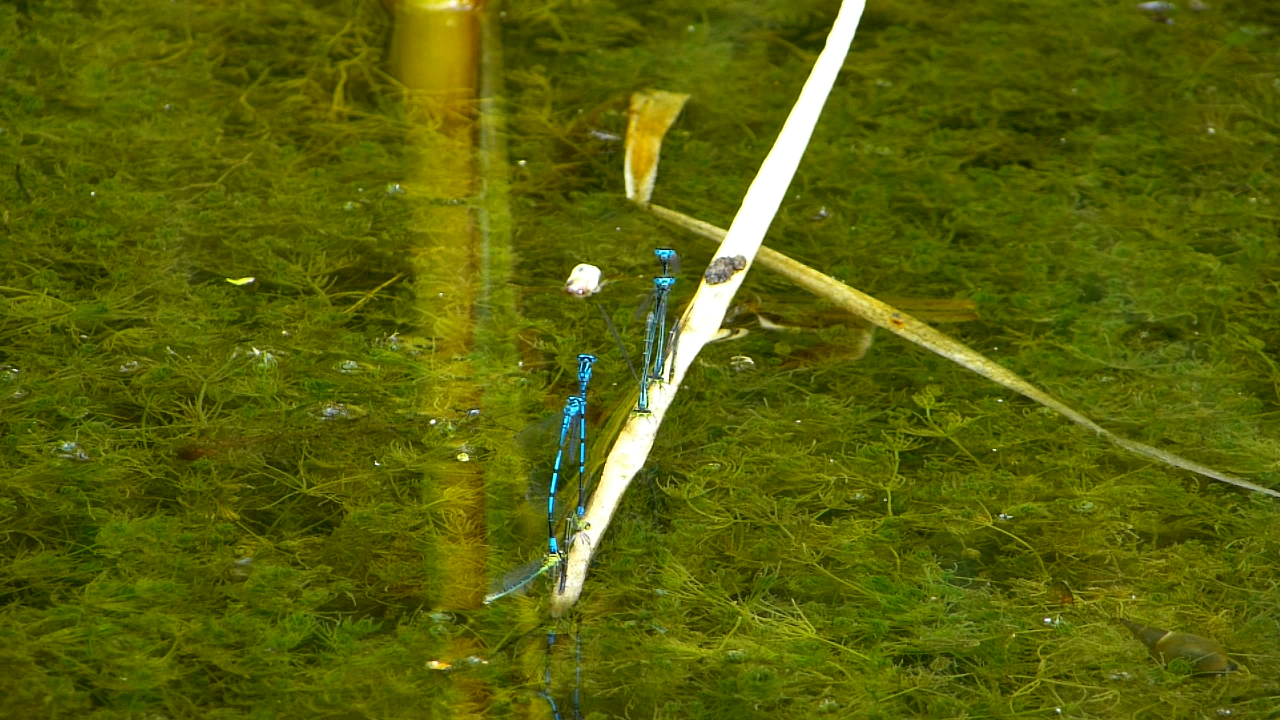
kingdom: Animalia
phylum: Arthropoda
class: Insecta
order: Odonata
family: Coenagrionidae
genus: Coenagrion
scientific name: Coenagrion puella
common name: Azure damselfly
